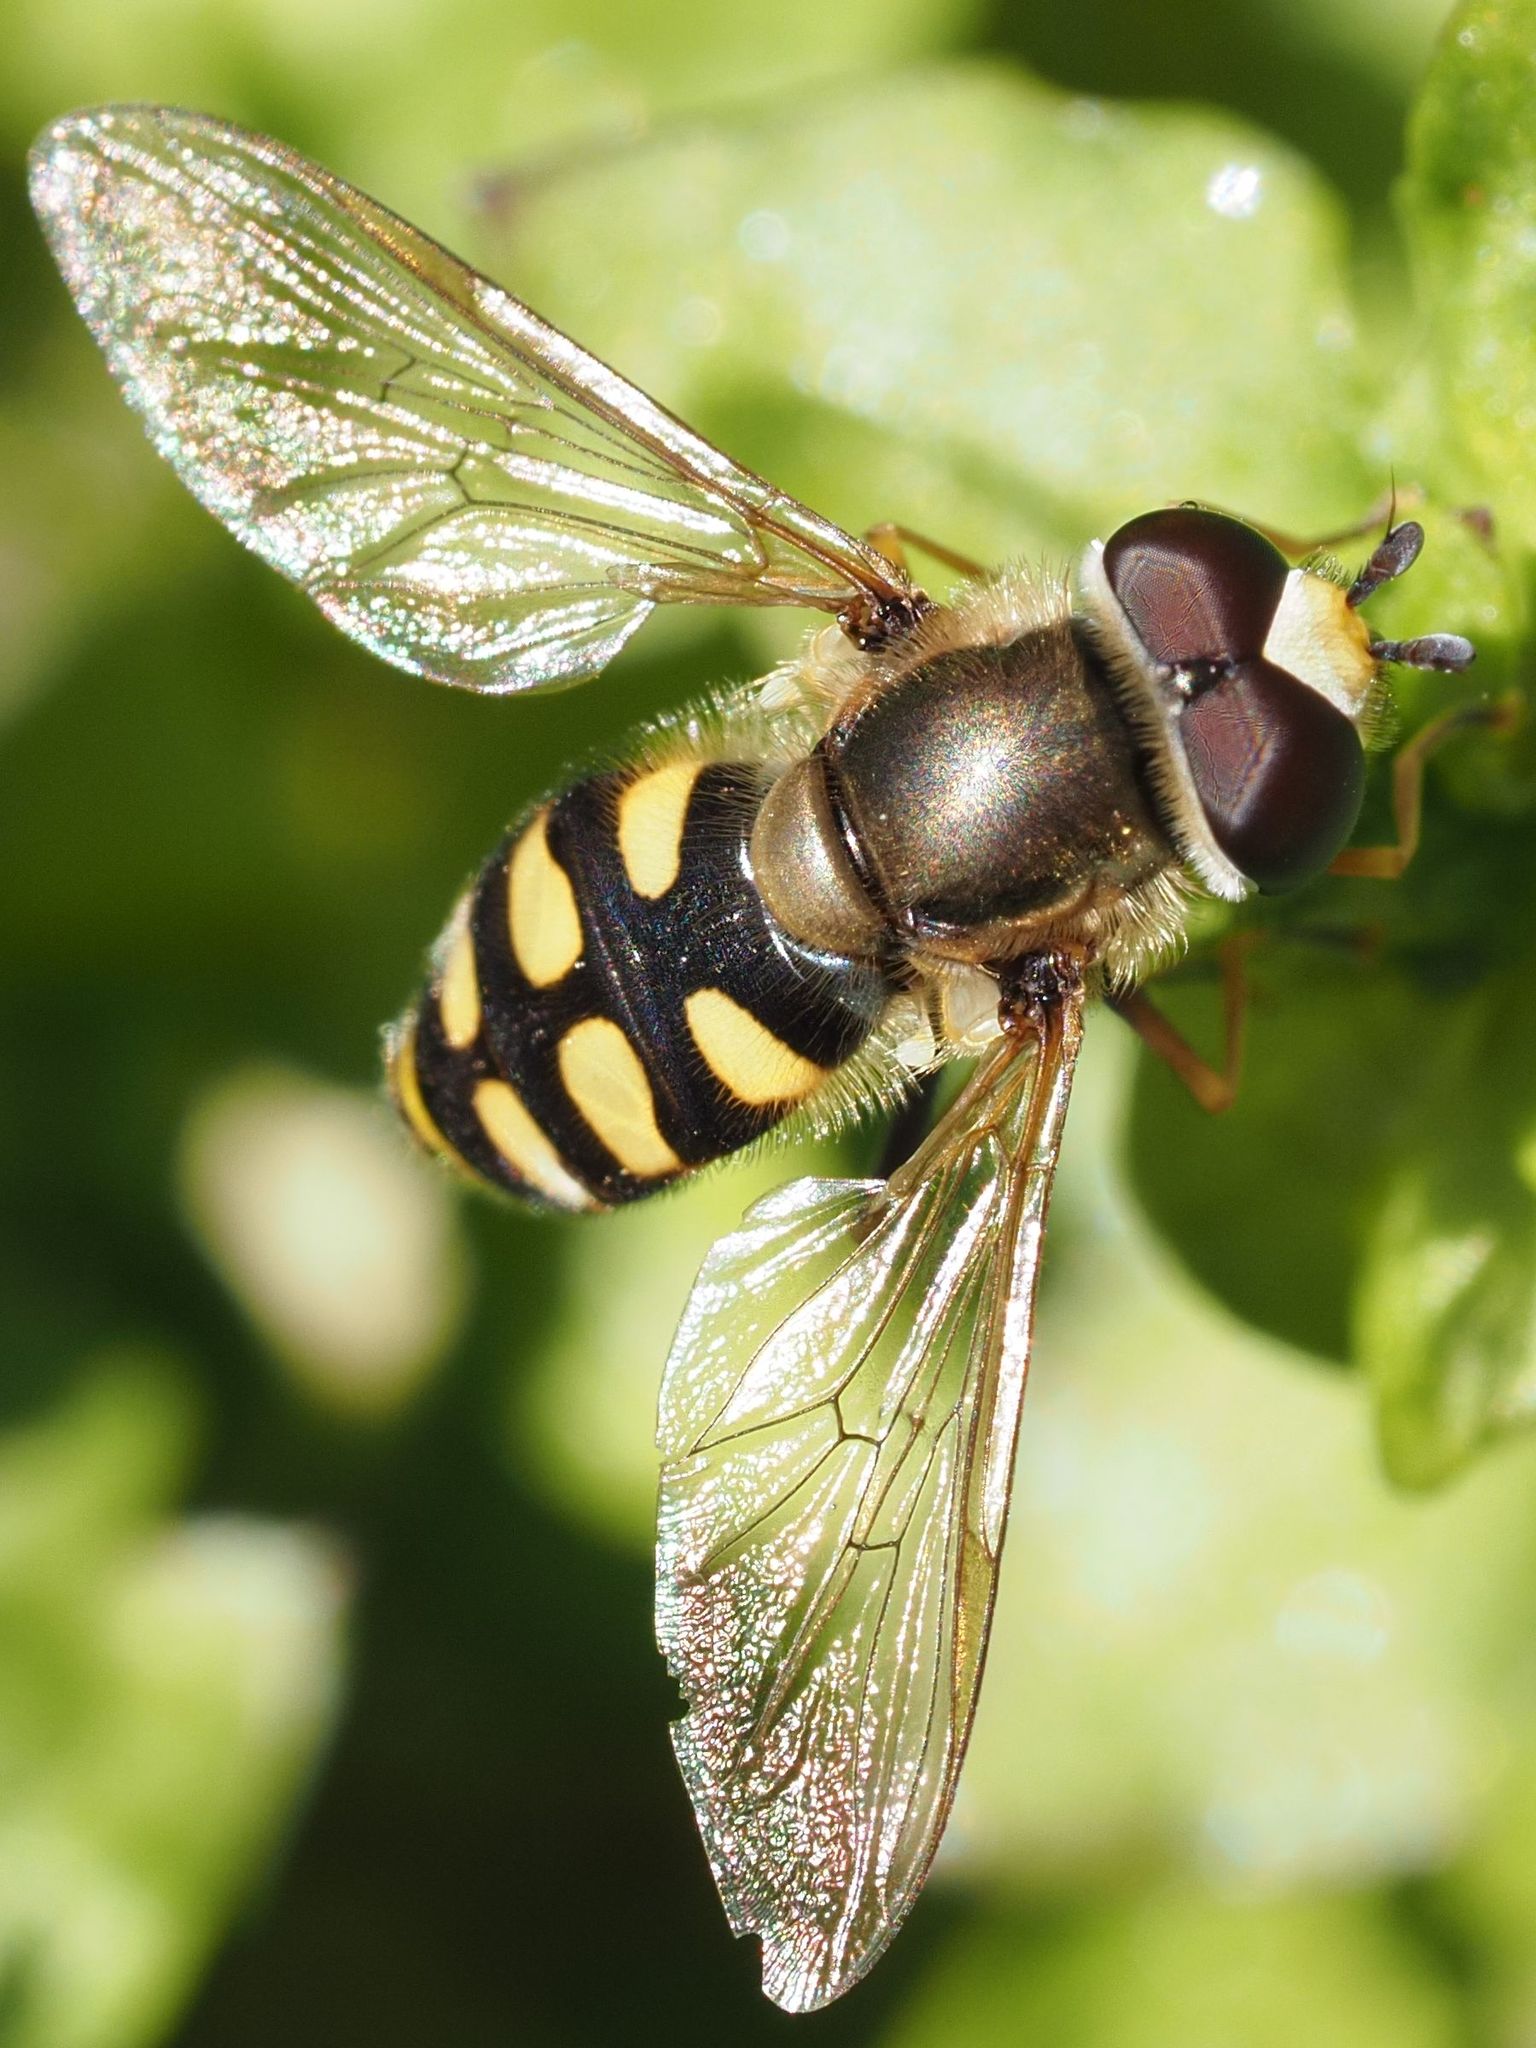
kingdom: Animalia
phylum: Arthropoda
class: Insecta
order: Diptera
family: Syrphidae
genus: Eupeodes
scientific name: Eupeodes corollae
